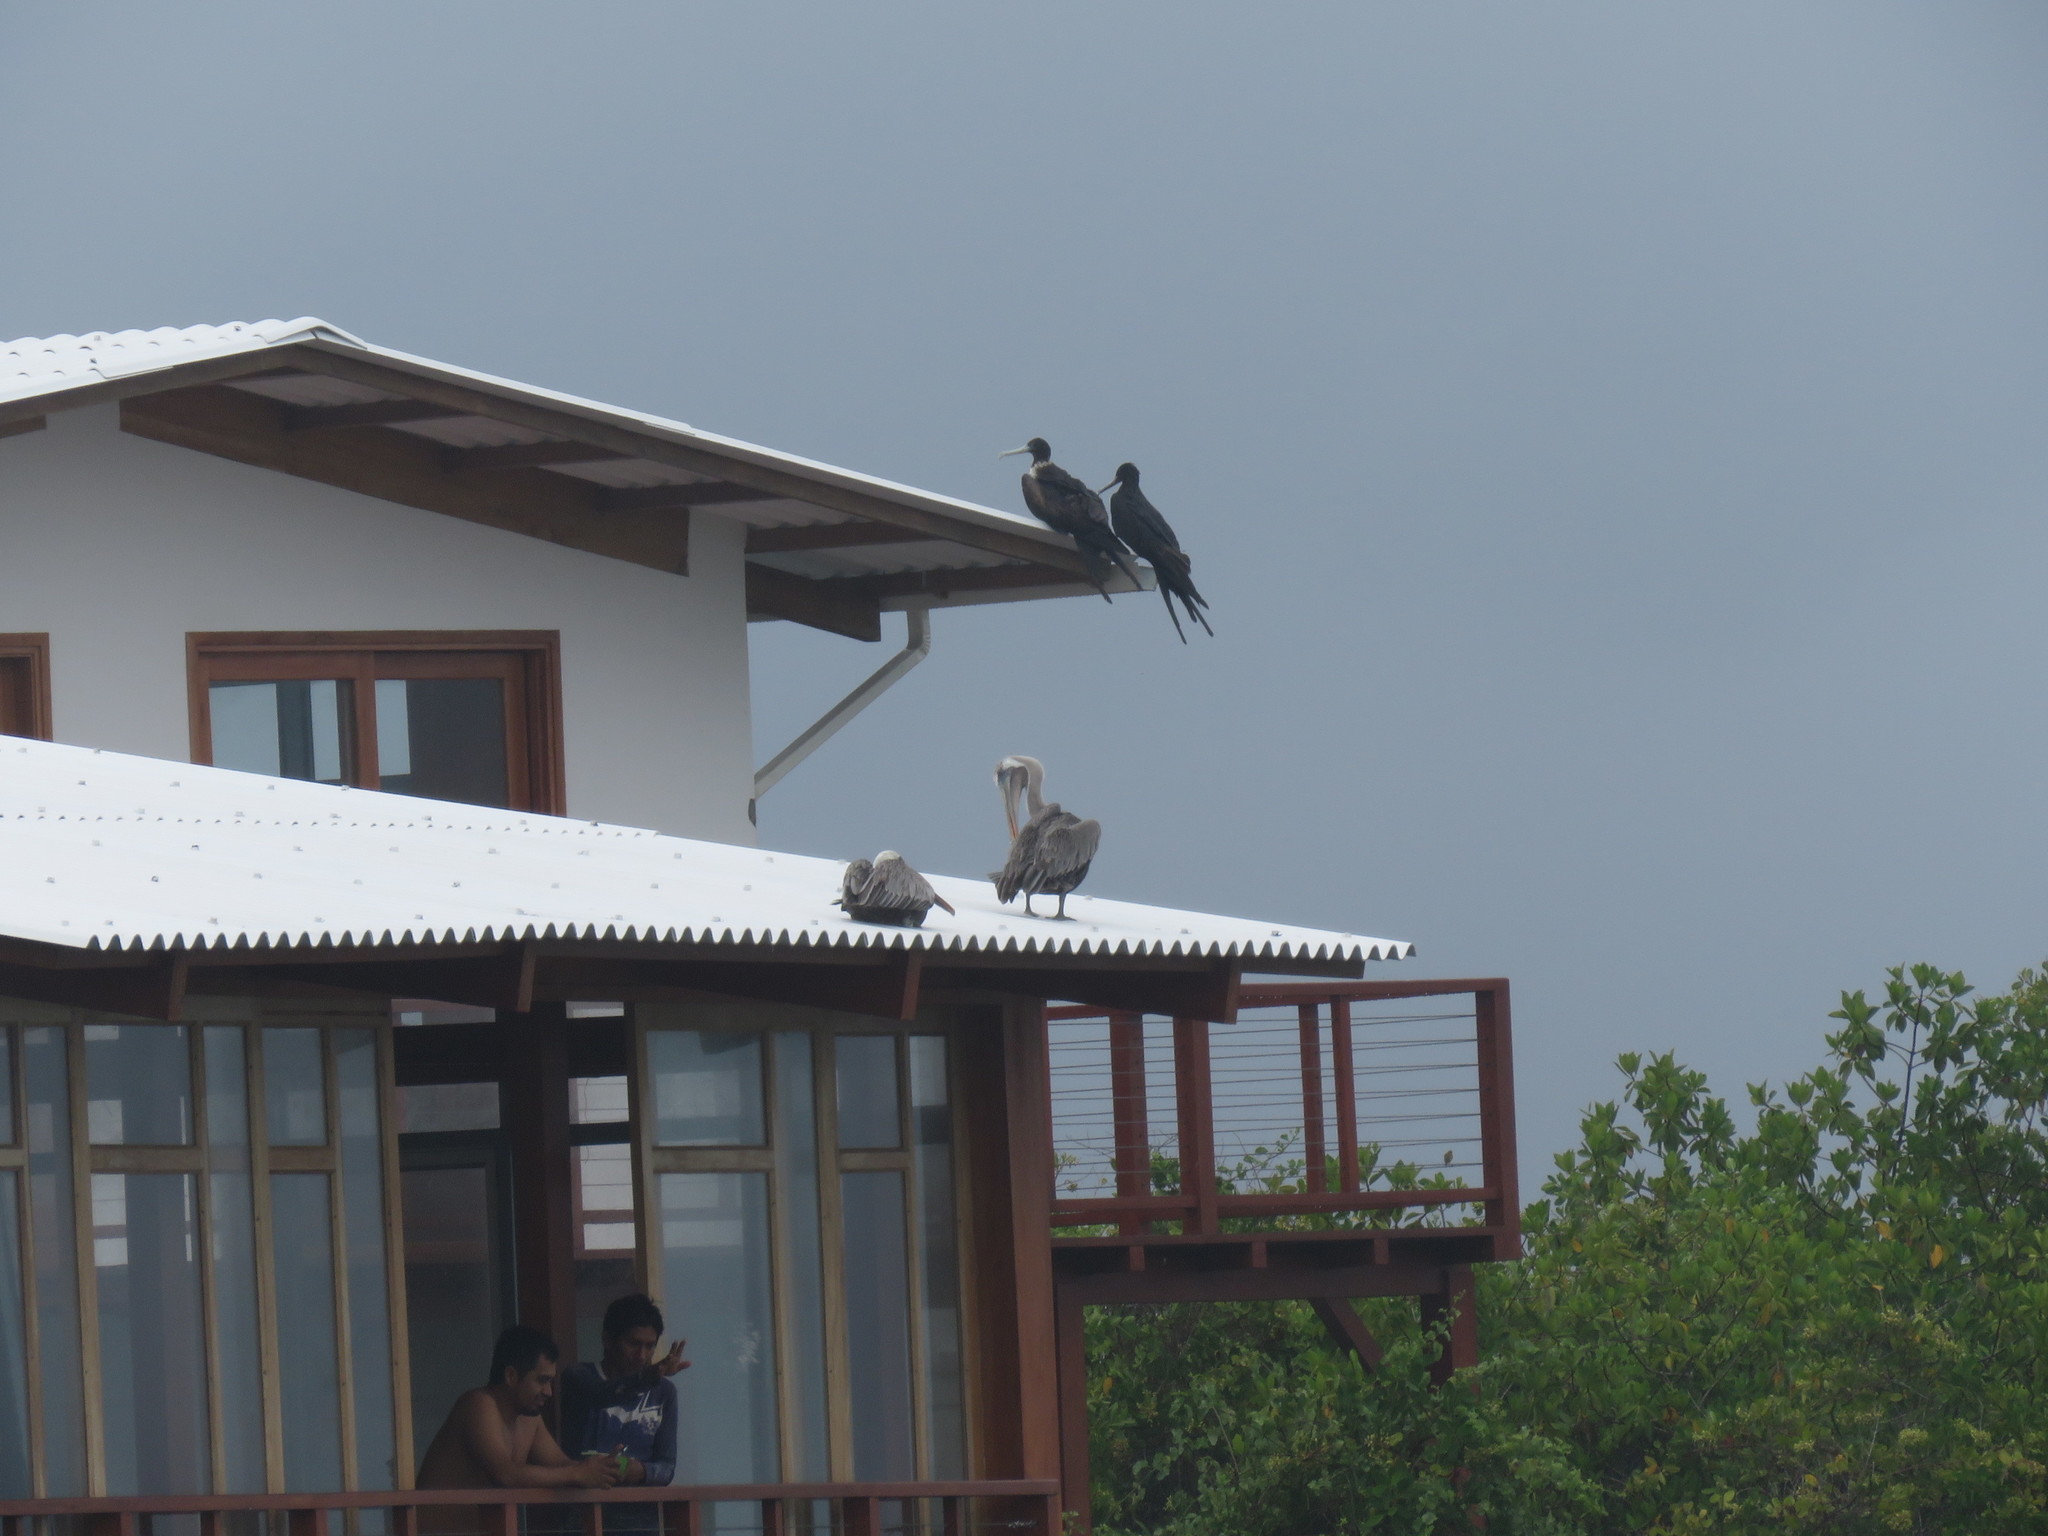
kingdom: Animalia
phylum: Chordata
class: Aves
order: Pelecaniformes
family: Pelecanidae
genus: Pelecanus
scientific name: Pelecanus occidentalis
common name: Brown pelican
